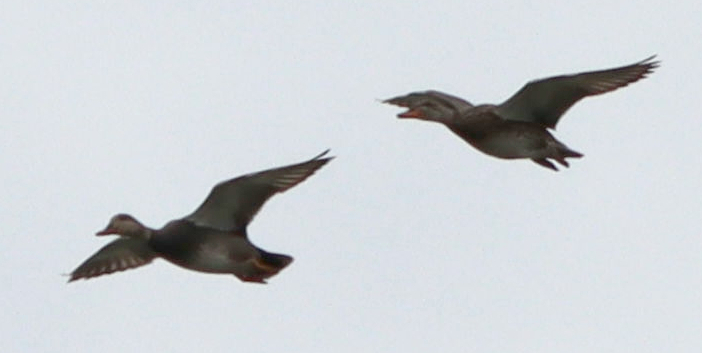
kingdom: Animalia
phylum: Chordata
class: Aves
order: Anseriformes
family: Anatidae
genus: Mareca
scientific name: Mareca americana
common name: American wigeon
